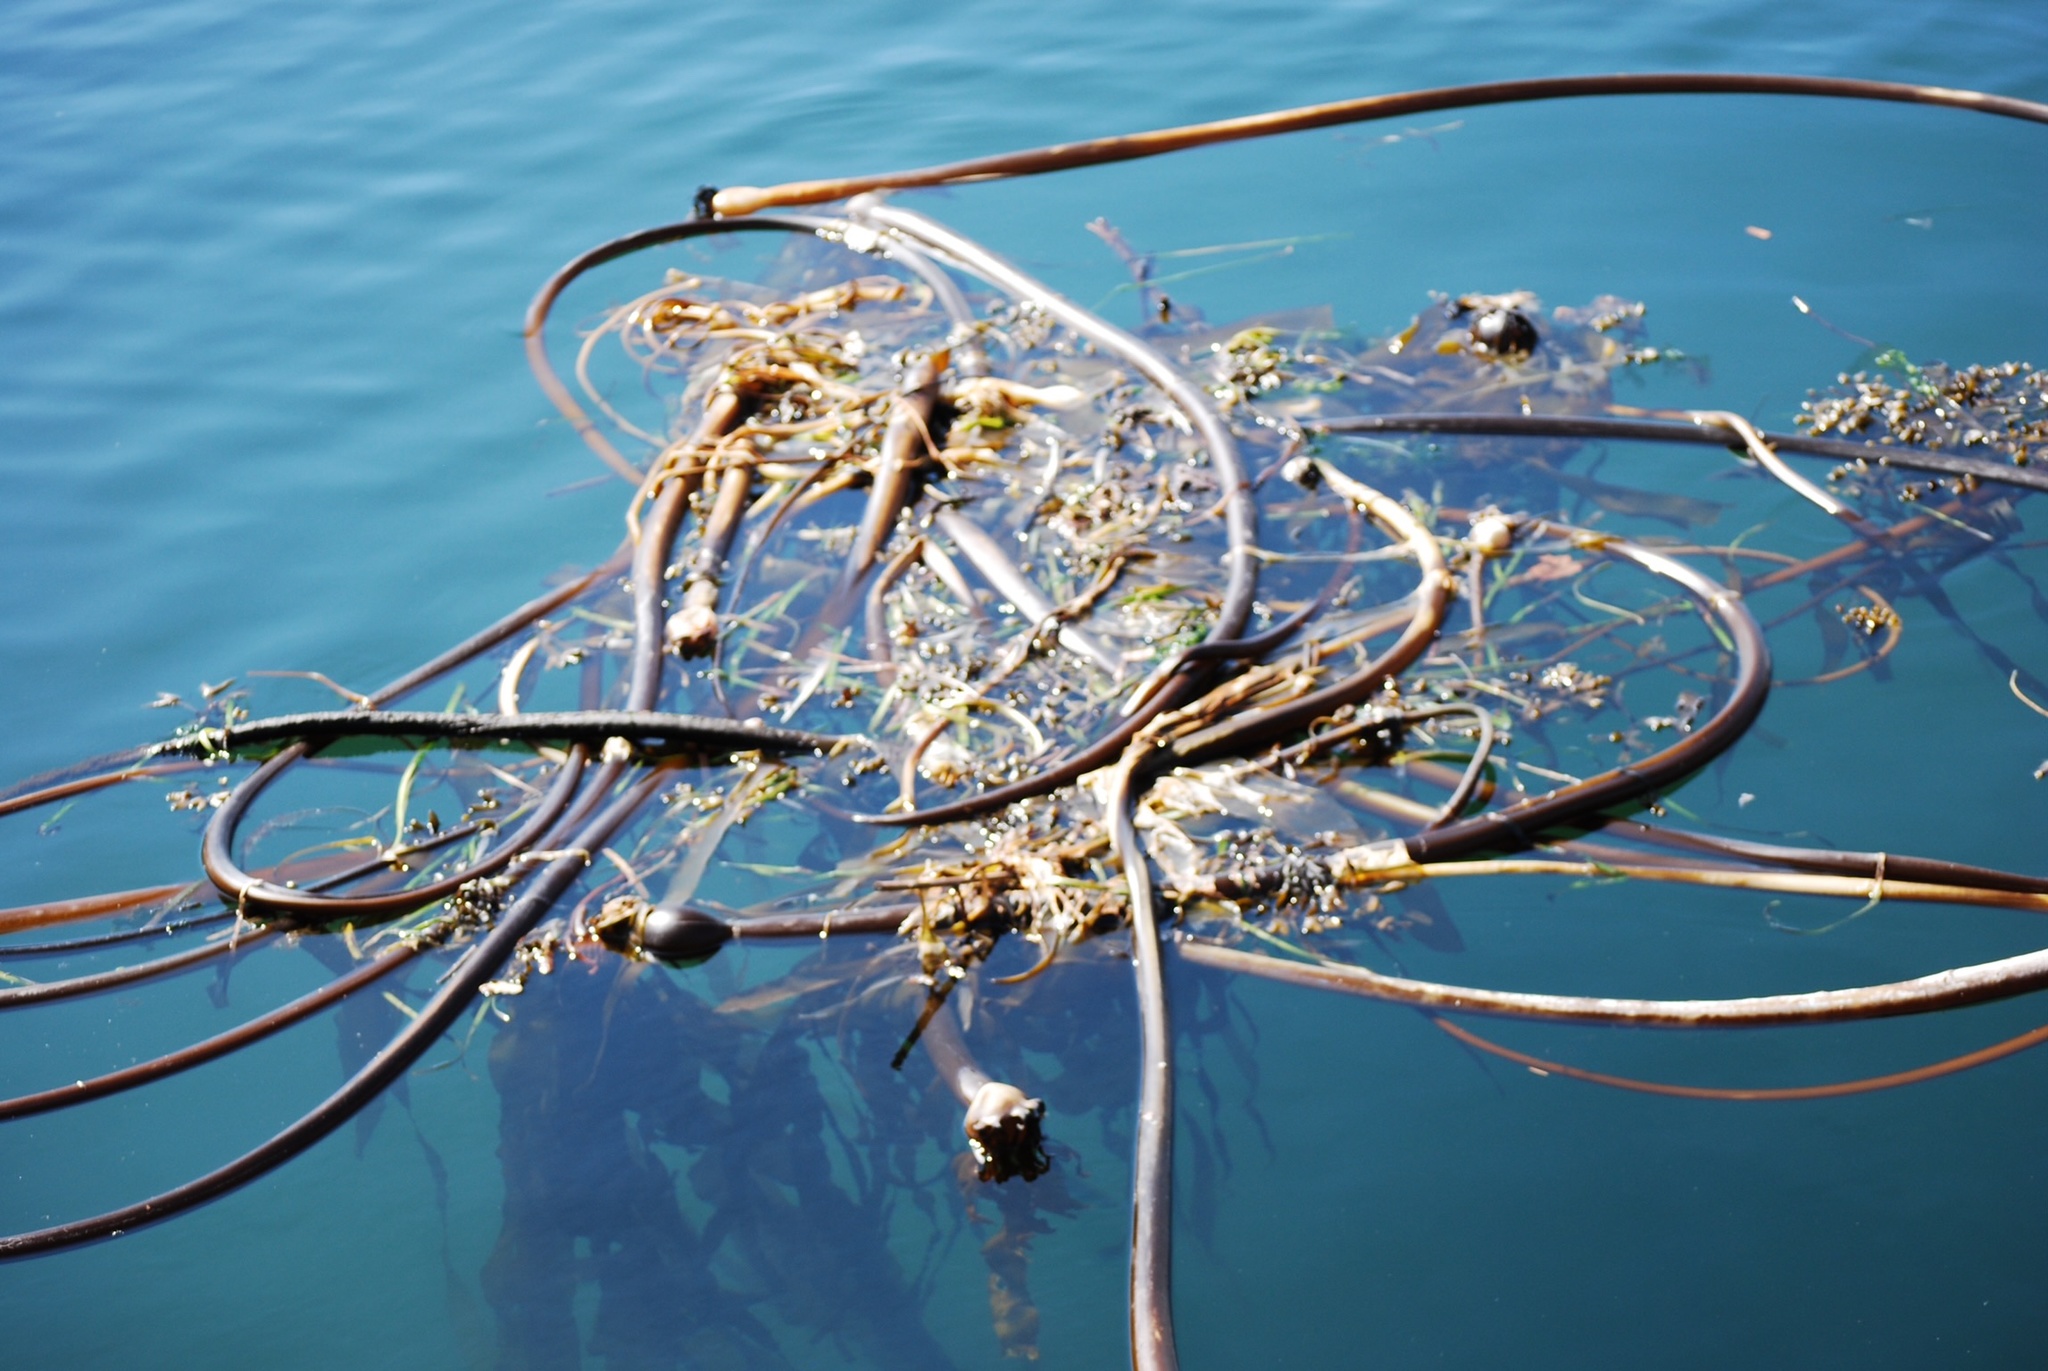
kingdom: Chromista
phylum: Ochrophyta
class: Phaeophyceae
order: Laminariales
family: Laminariaceae
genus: Nereocystis
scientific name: Nereocystis luetkeana
